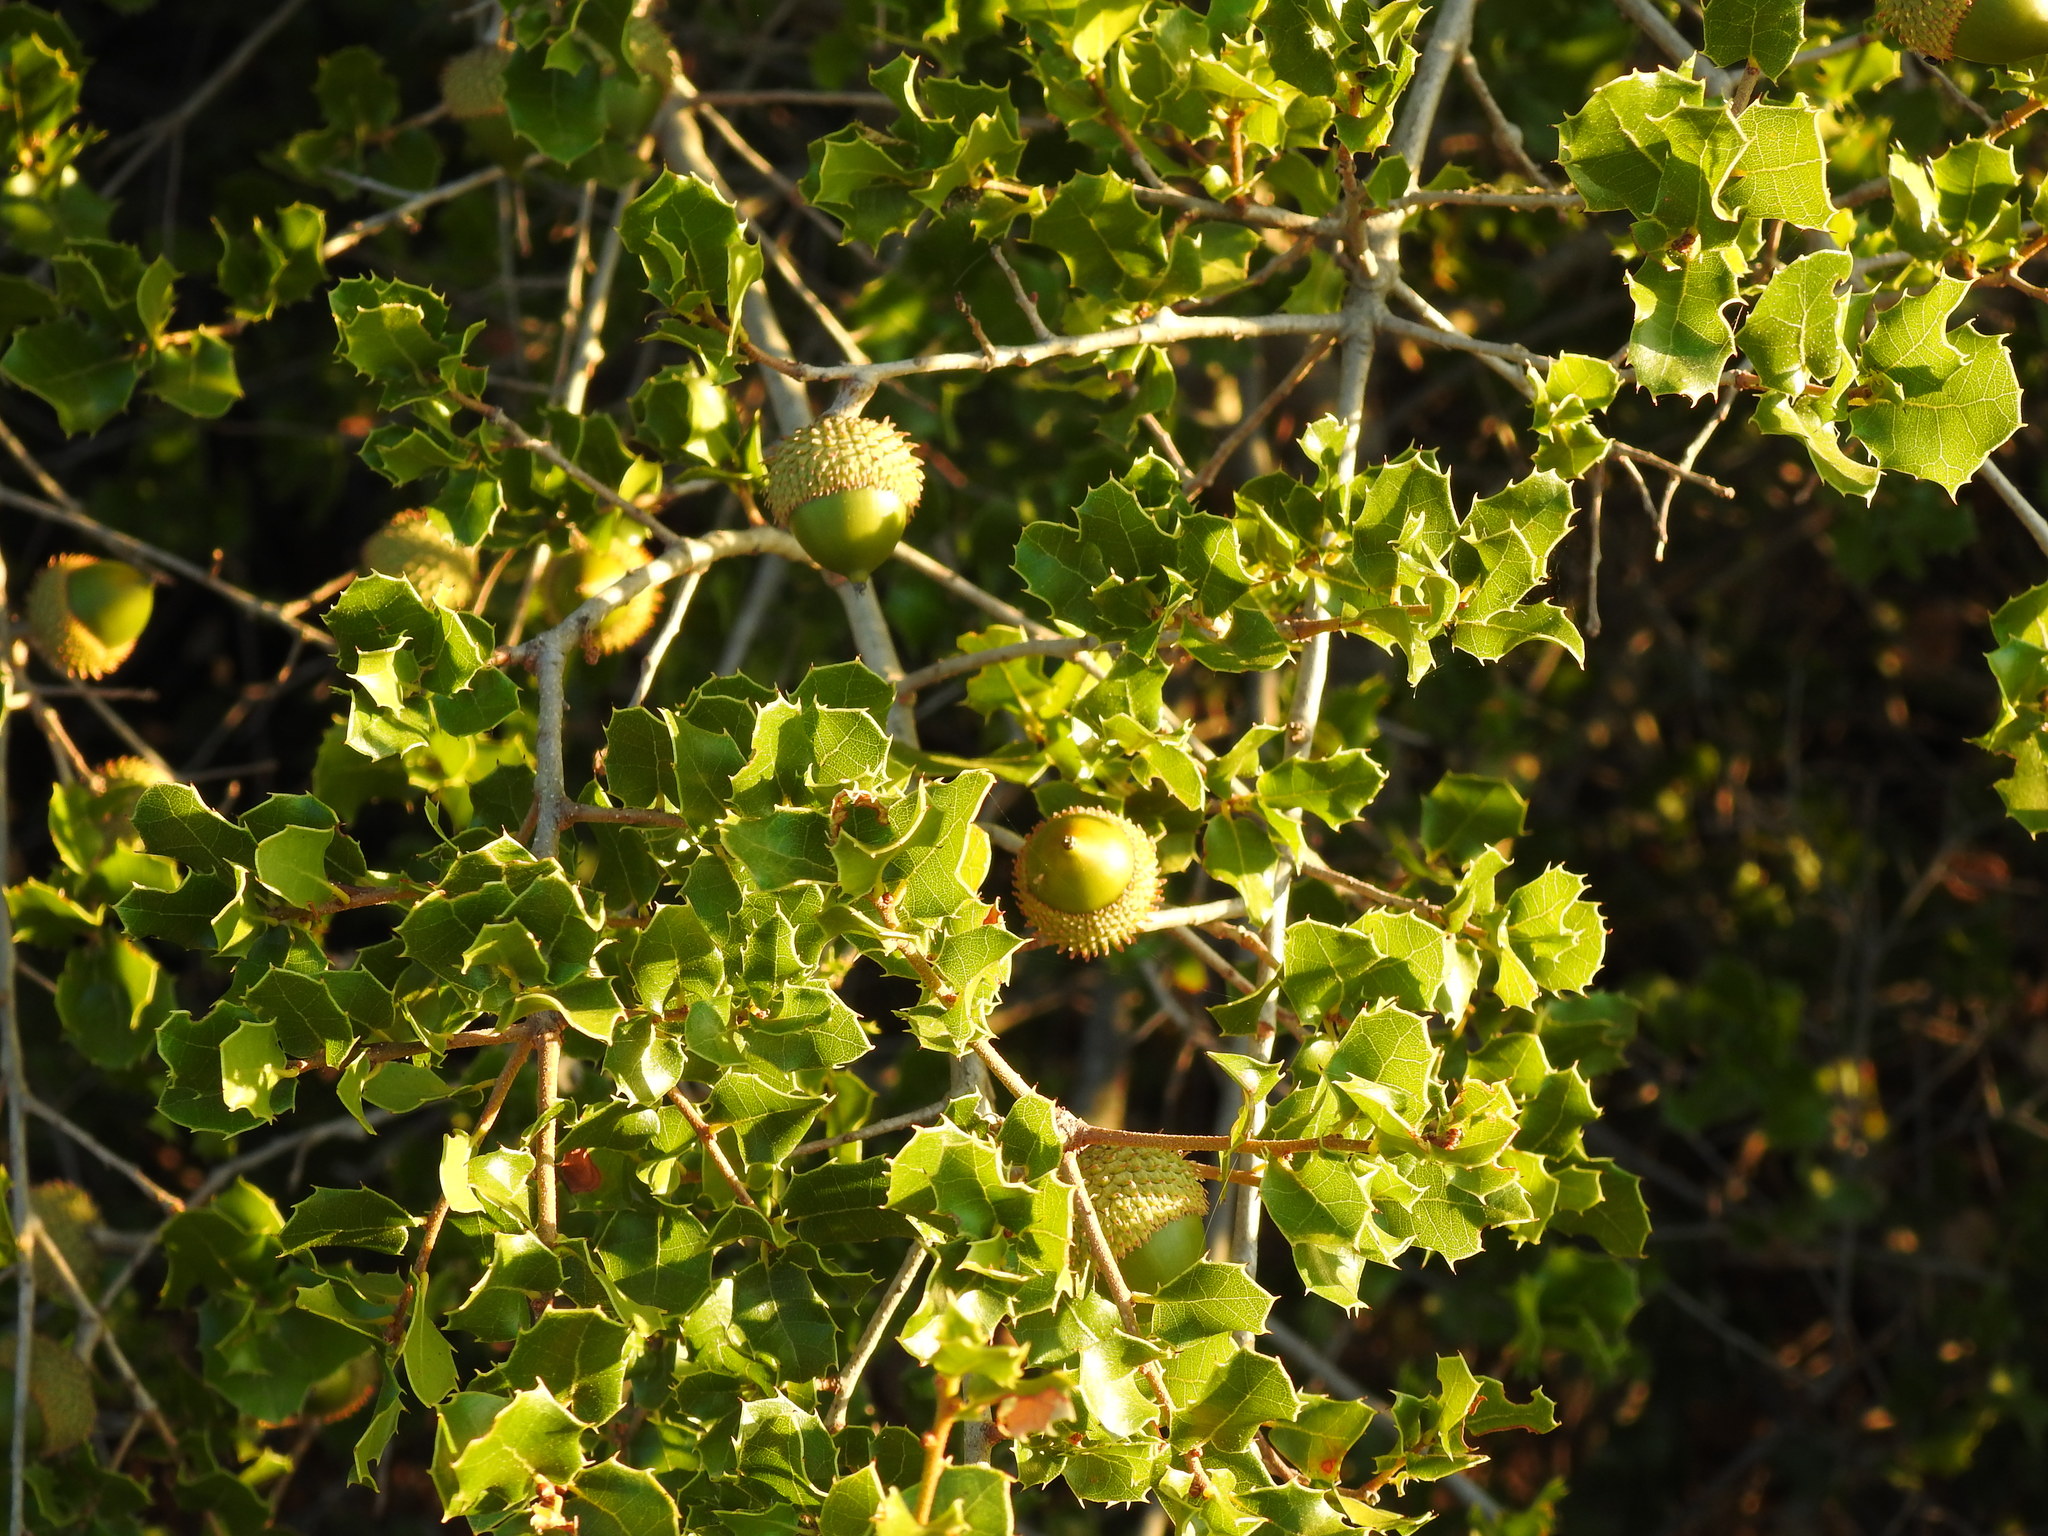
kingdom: Plantae
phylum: Tracheophyta
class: Magnoliopsida
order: Fagales
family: Fagaceae
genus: Quercus
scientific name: Quercus coccifera
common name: Kermes oak
